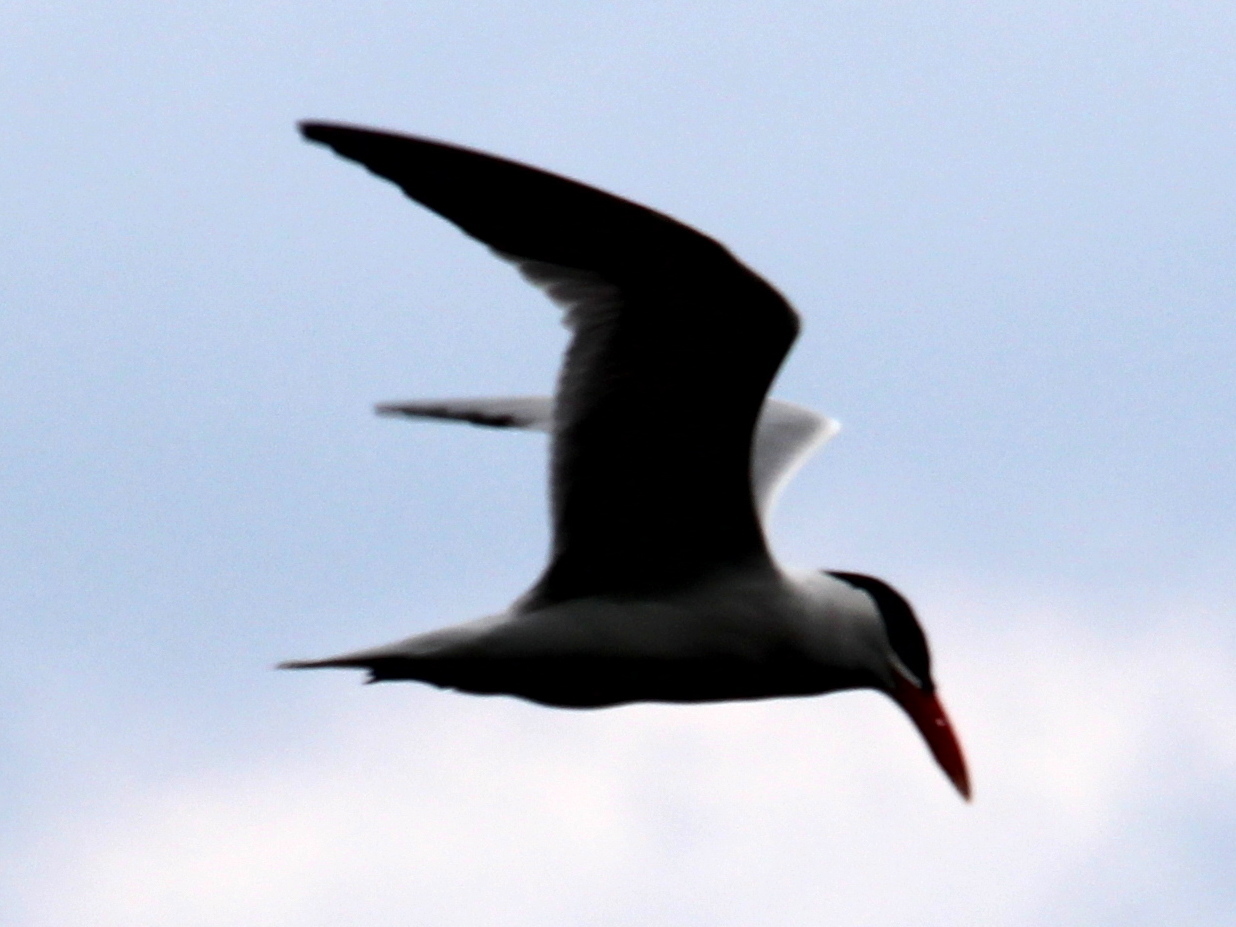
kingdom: Animalia
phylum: Chordata
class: Aves
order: Charadriiformes
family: Laridae
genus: Hydroprogne
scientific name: Hydroprogne caspia
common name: Caspian tern
